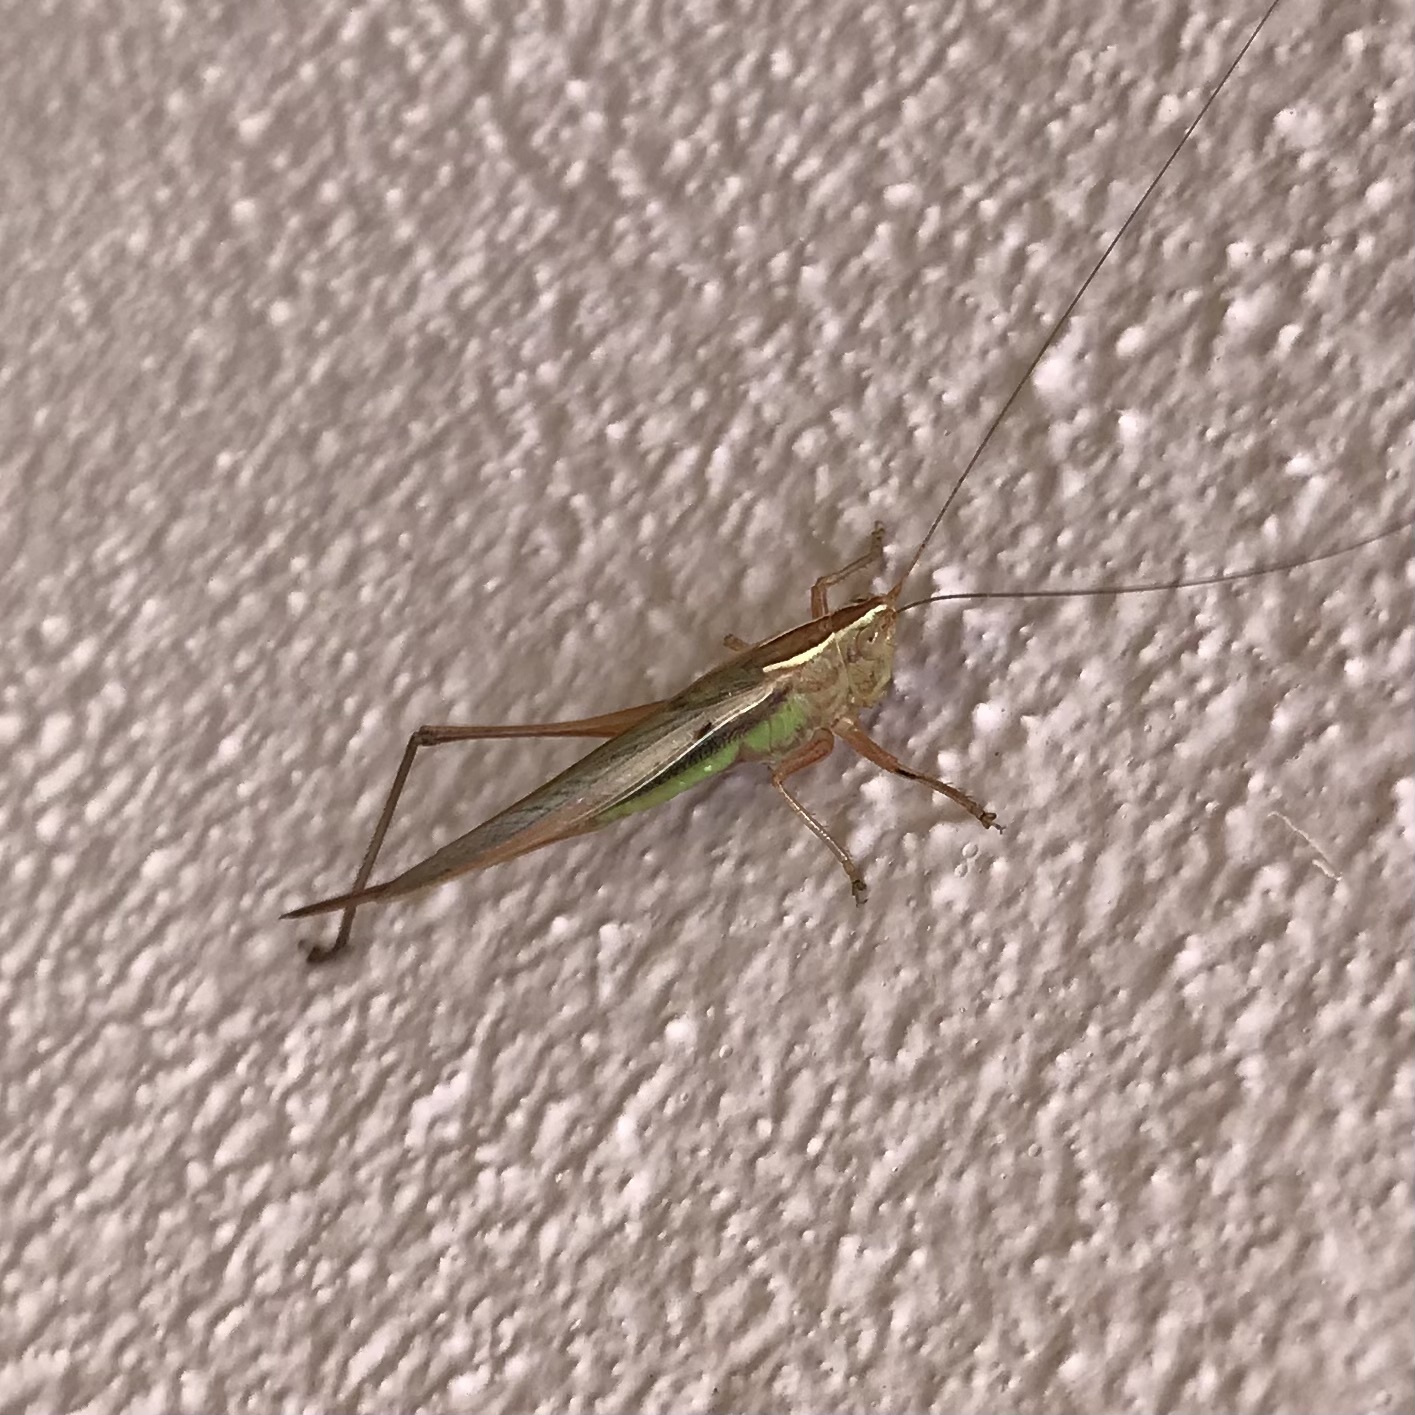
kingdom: Animalia
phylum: Arthropoda
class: Insecta
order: Orthoptera
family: Tettigoniidae
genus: Conocephalus
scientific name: Conocephalus albescens
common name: Whitish meadow katydid
